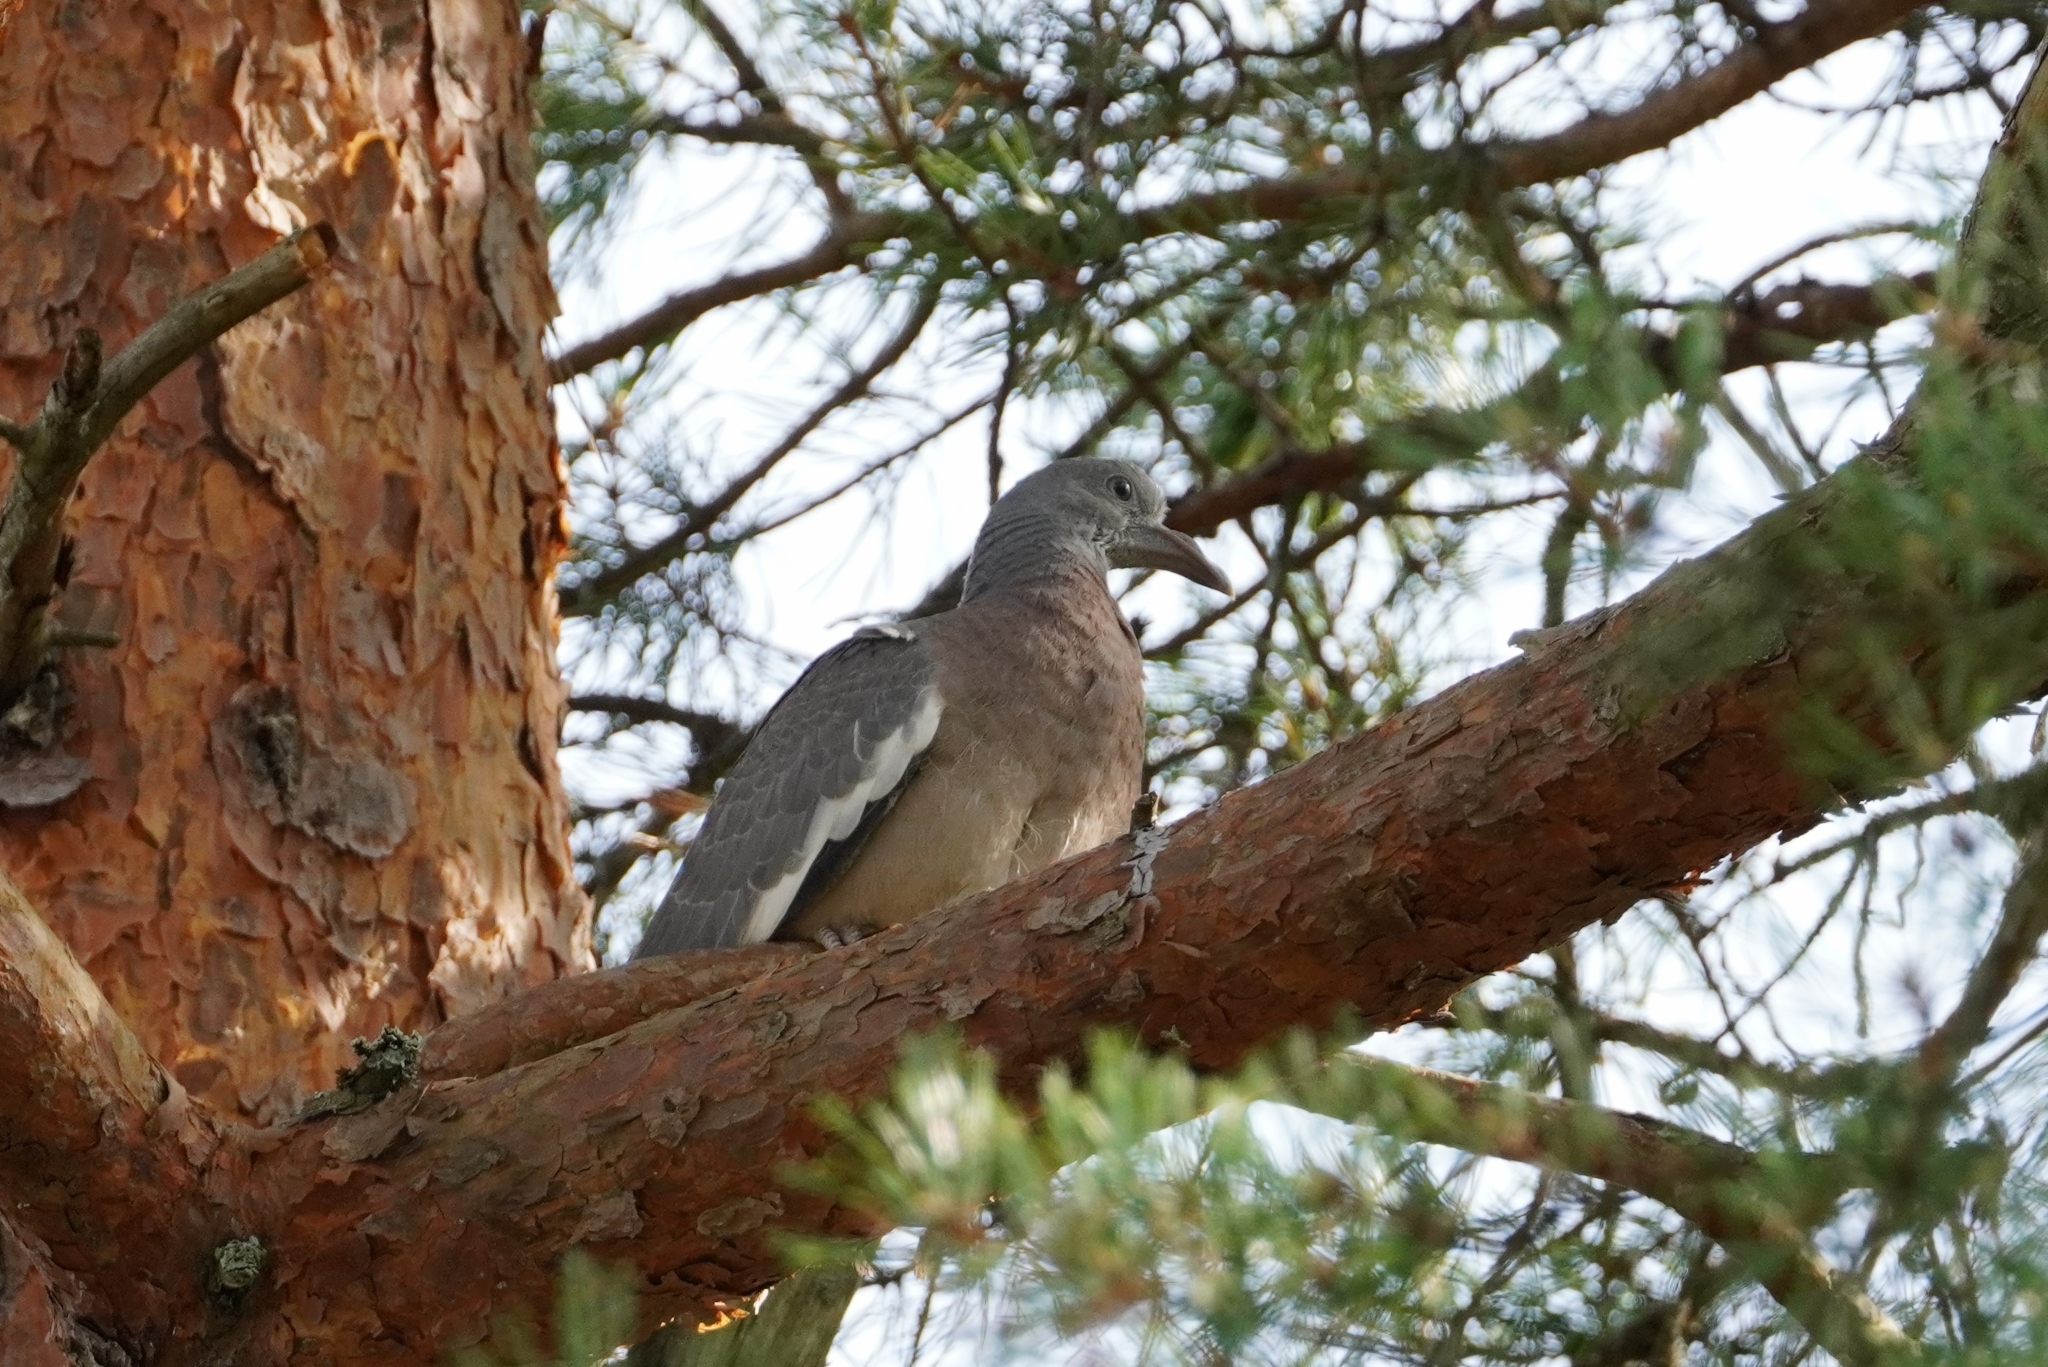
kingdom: Animalia
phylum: Chordata
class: Aves
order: Columbiformes
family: Columbidae
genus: Columba
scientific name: Columba palumbus
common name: Common wood pigeon
